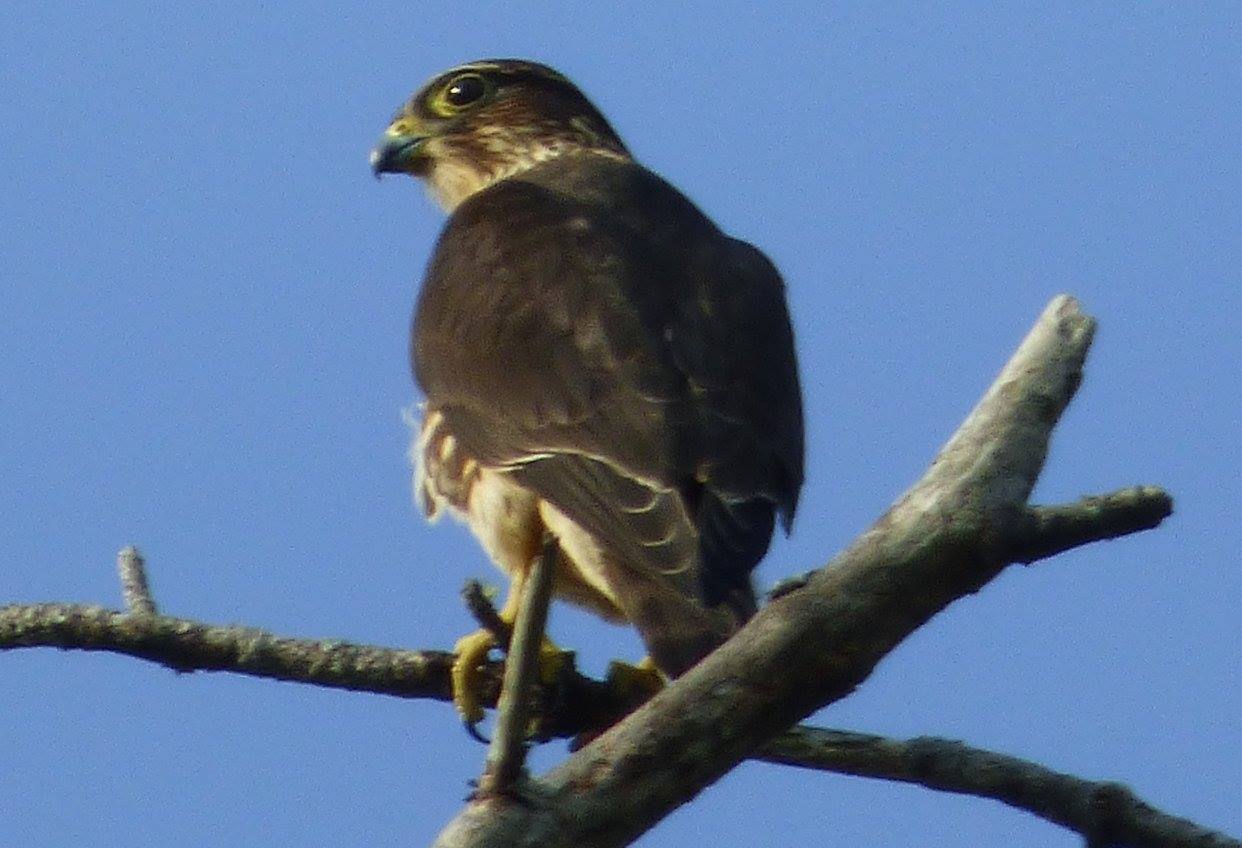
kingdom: Animalia
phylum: Chordata
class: Aves
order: Falconiformes
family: Falconidae
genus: Falco
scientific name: Falco columbarius
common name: Merlin
